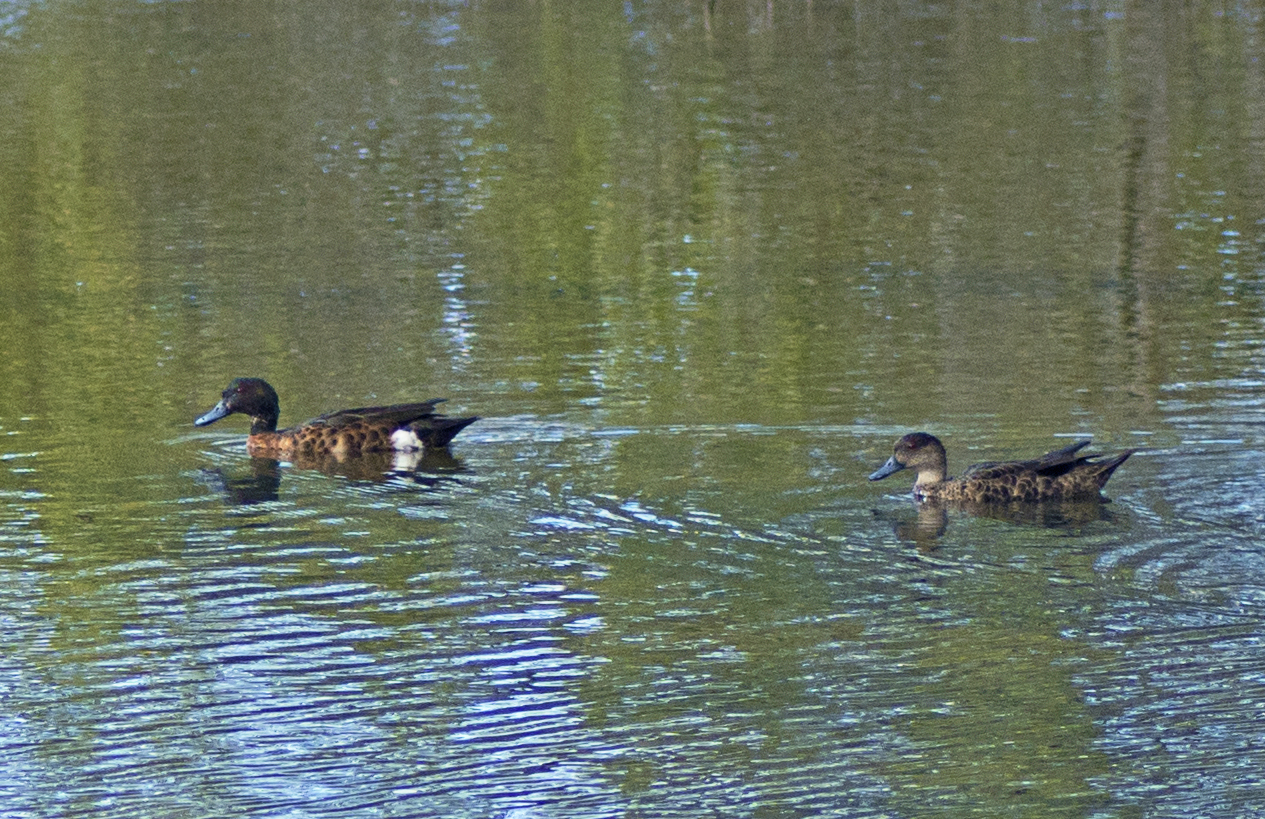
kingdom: Animalia
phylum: Chordata
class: Aves
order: Anseriformes
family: Anatidae
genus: Anas
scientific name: Anas castanea
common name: Chestnut teal
